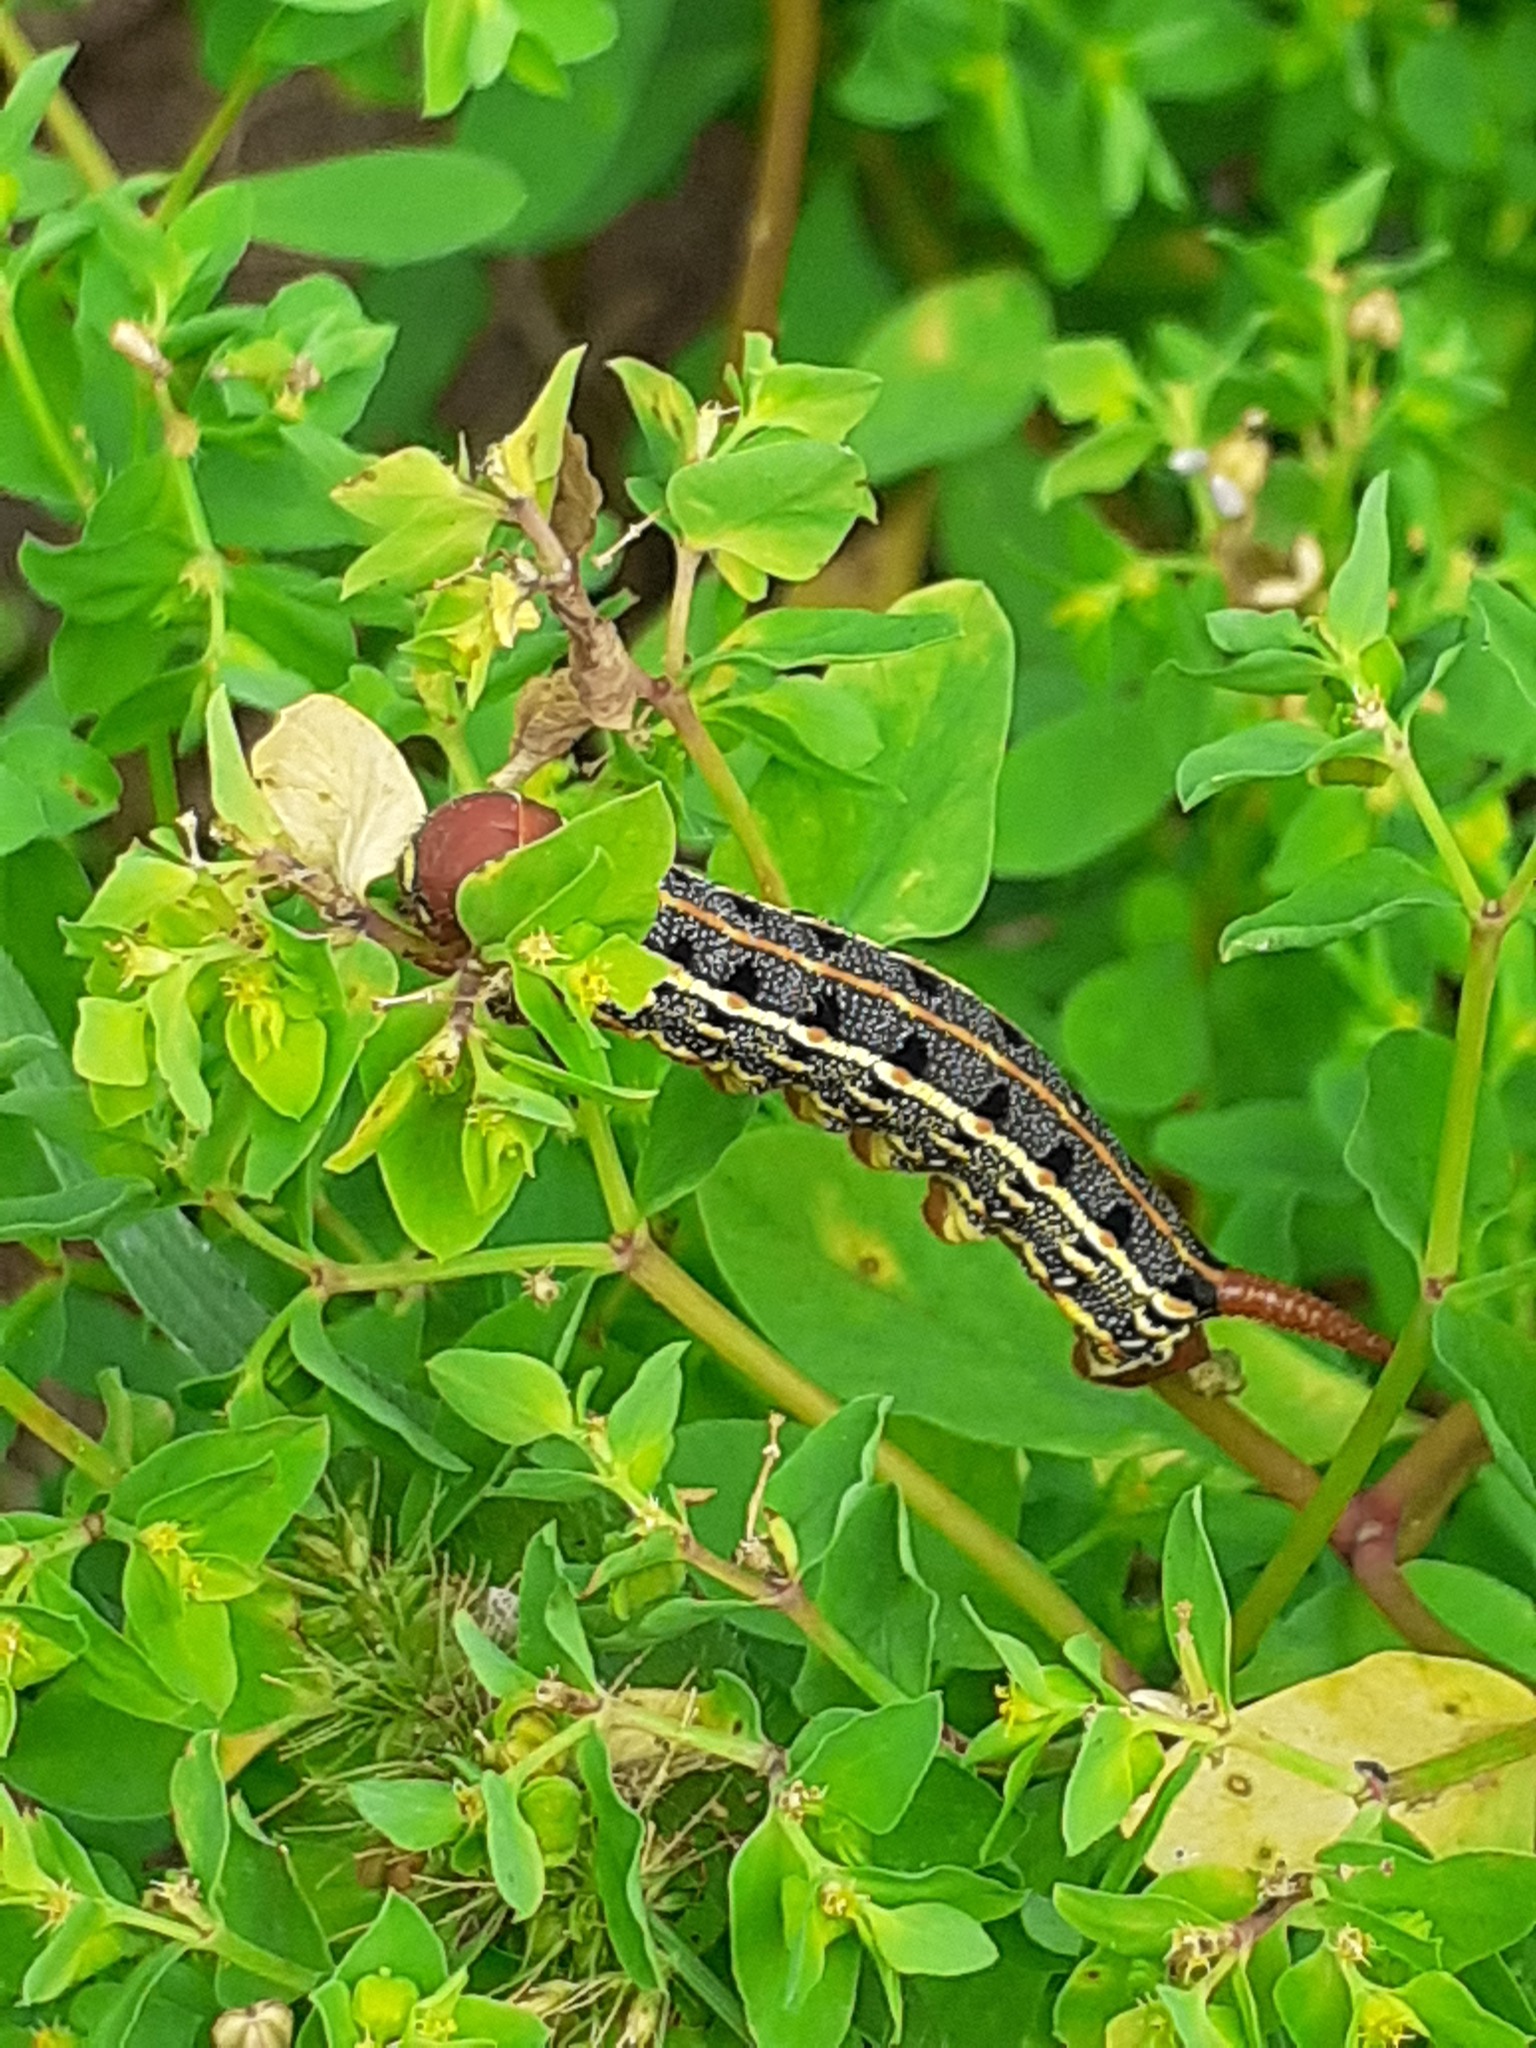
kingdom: Animalia
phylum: Arthropoda
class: Insecta
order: Lepidoptera
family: Sphingidae
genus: Hyles
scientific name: Hyles tithymali
